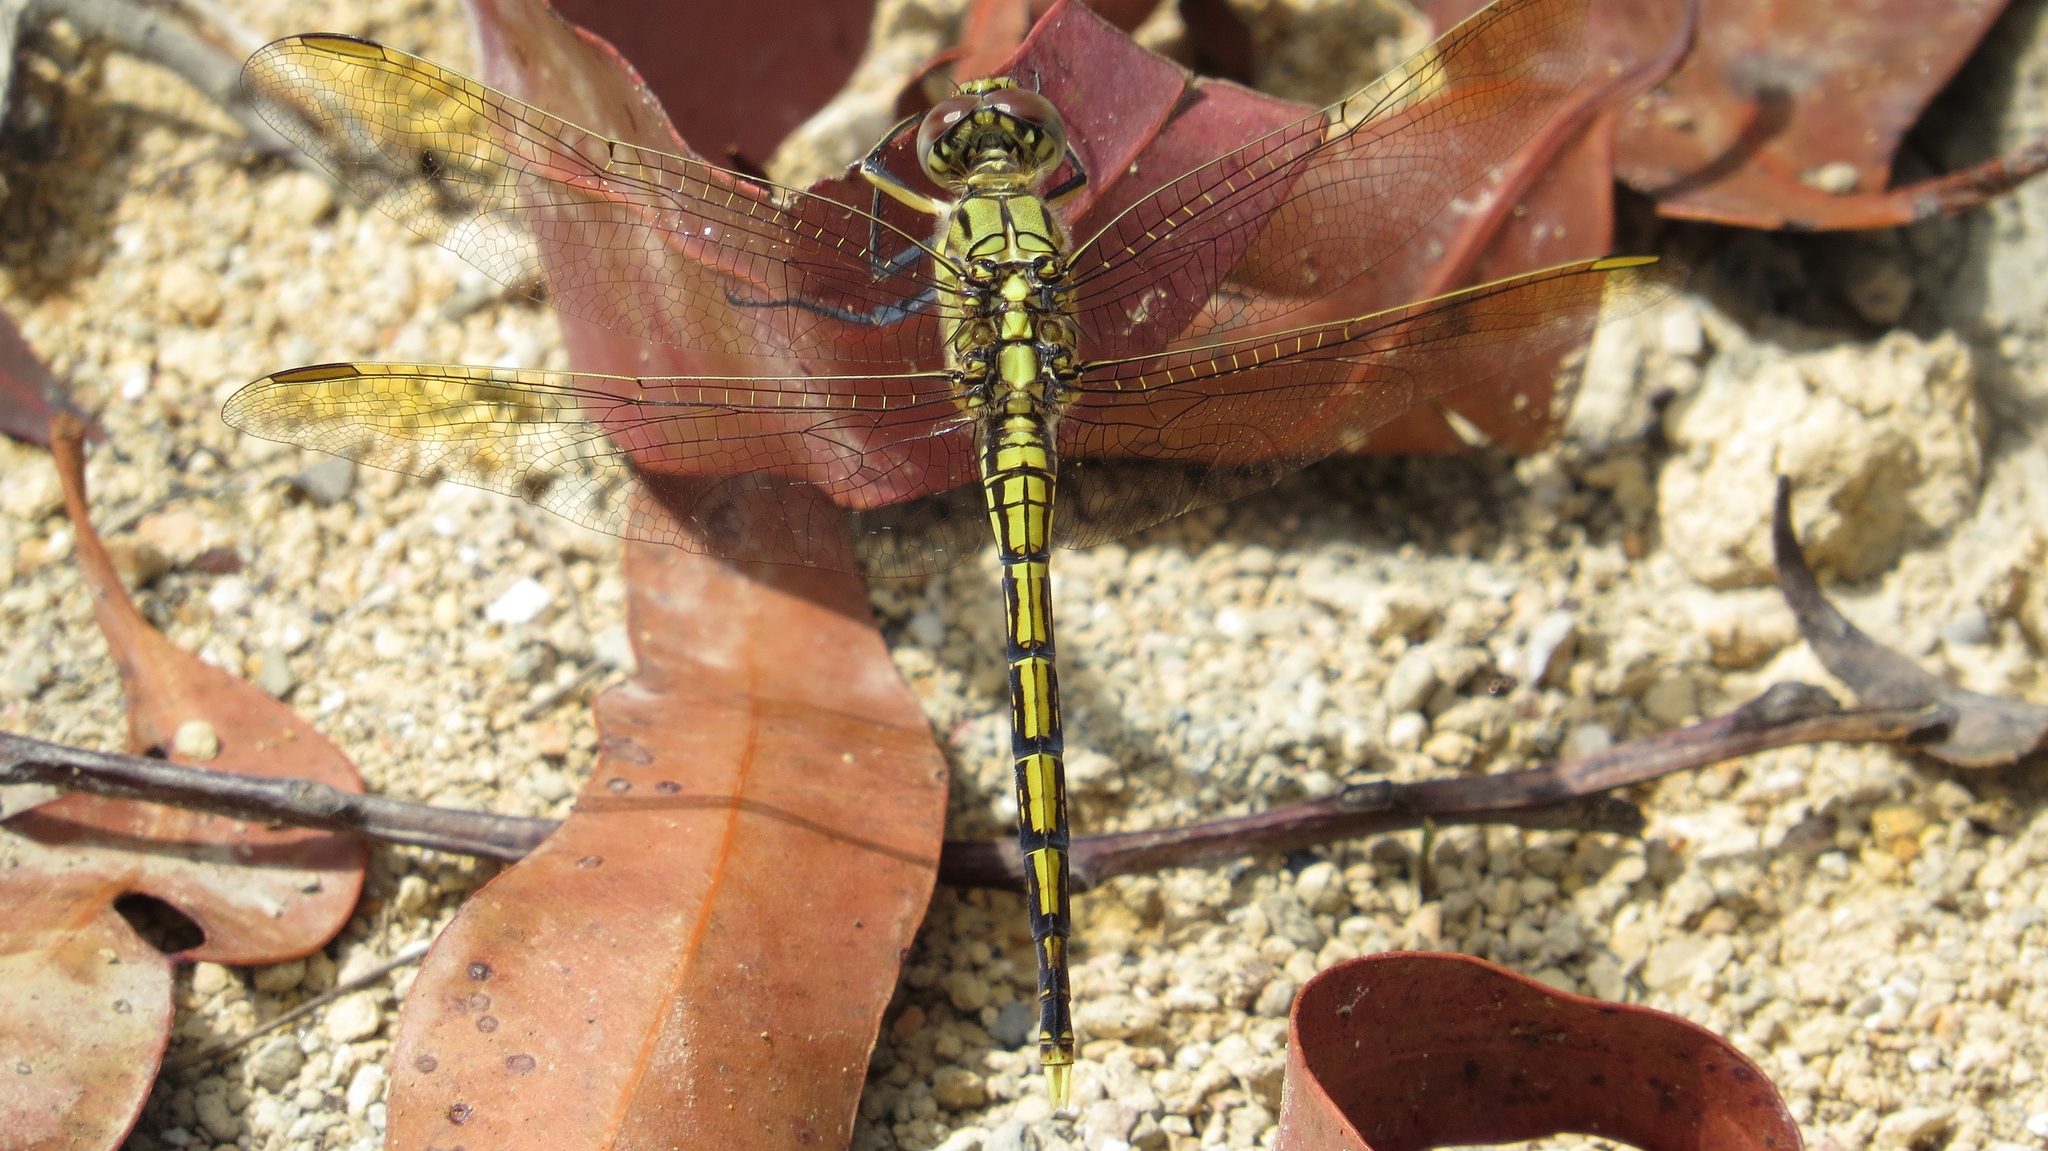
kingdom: Animalia
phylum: Arthropoda
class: Insecta
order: Odonata
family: Libellulidae
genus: Orthetrum
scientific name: Orthetrum caledonicum
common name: Blue skimmer
